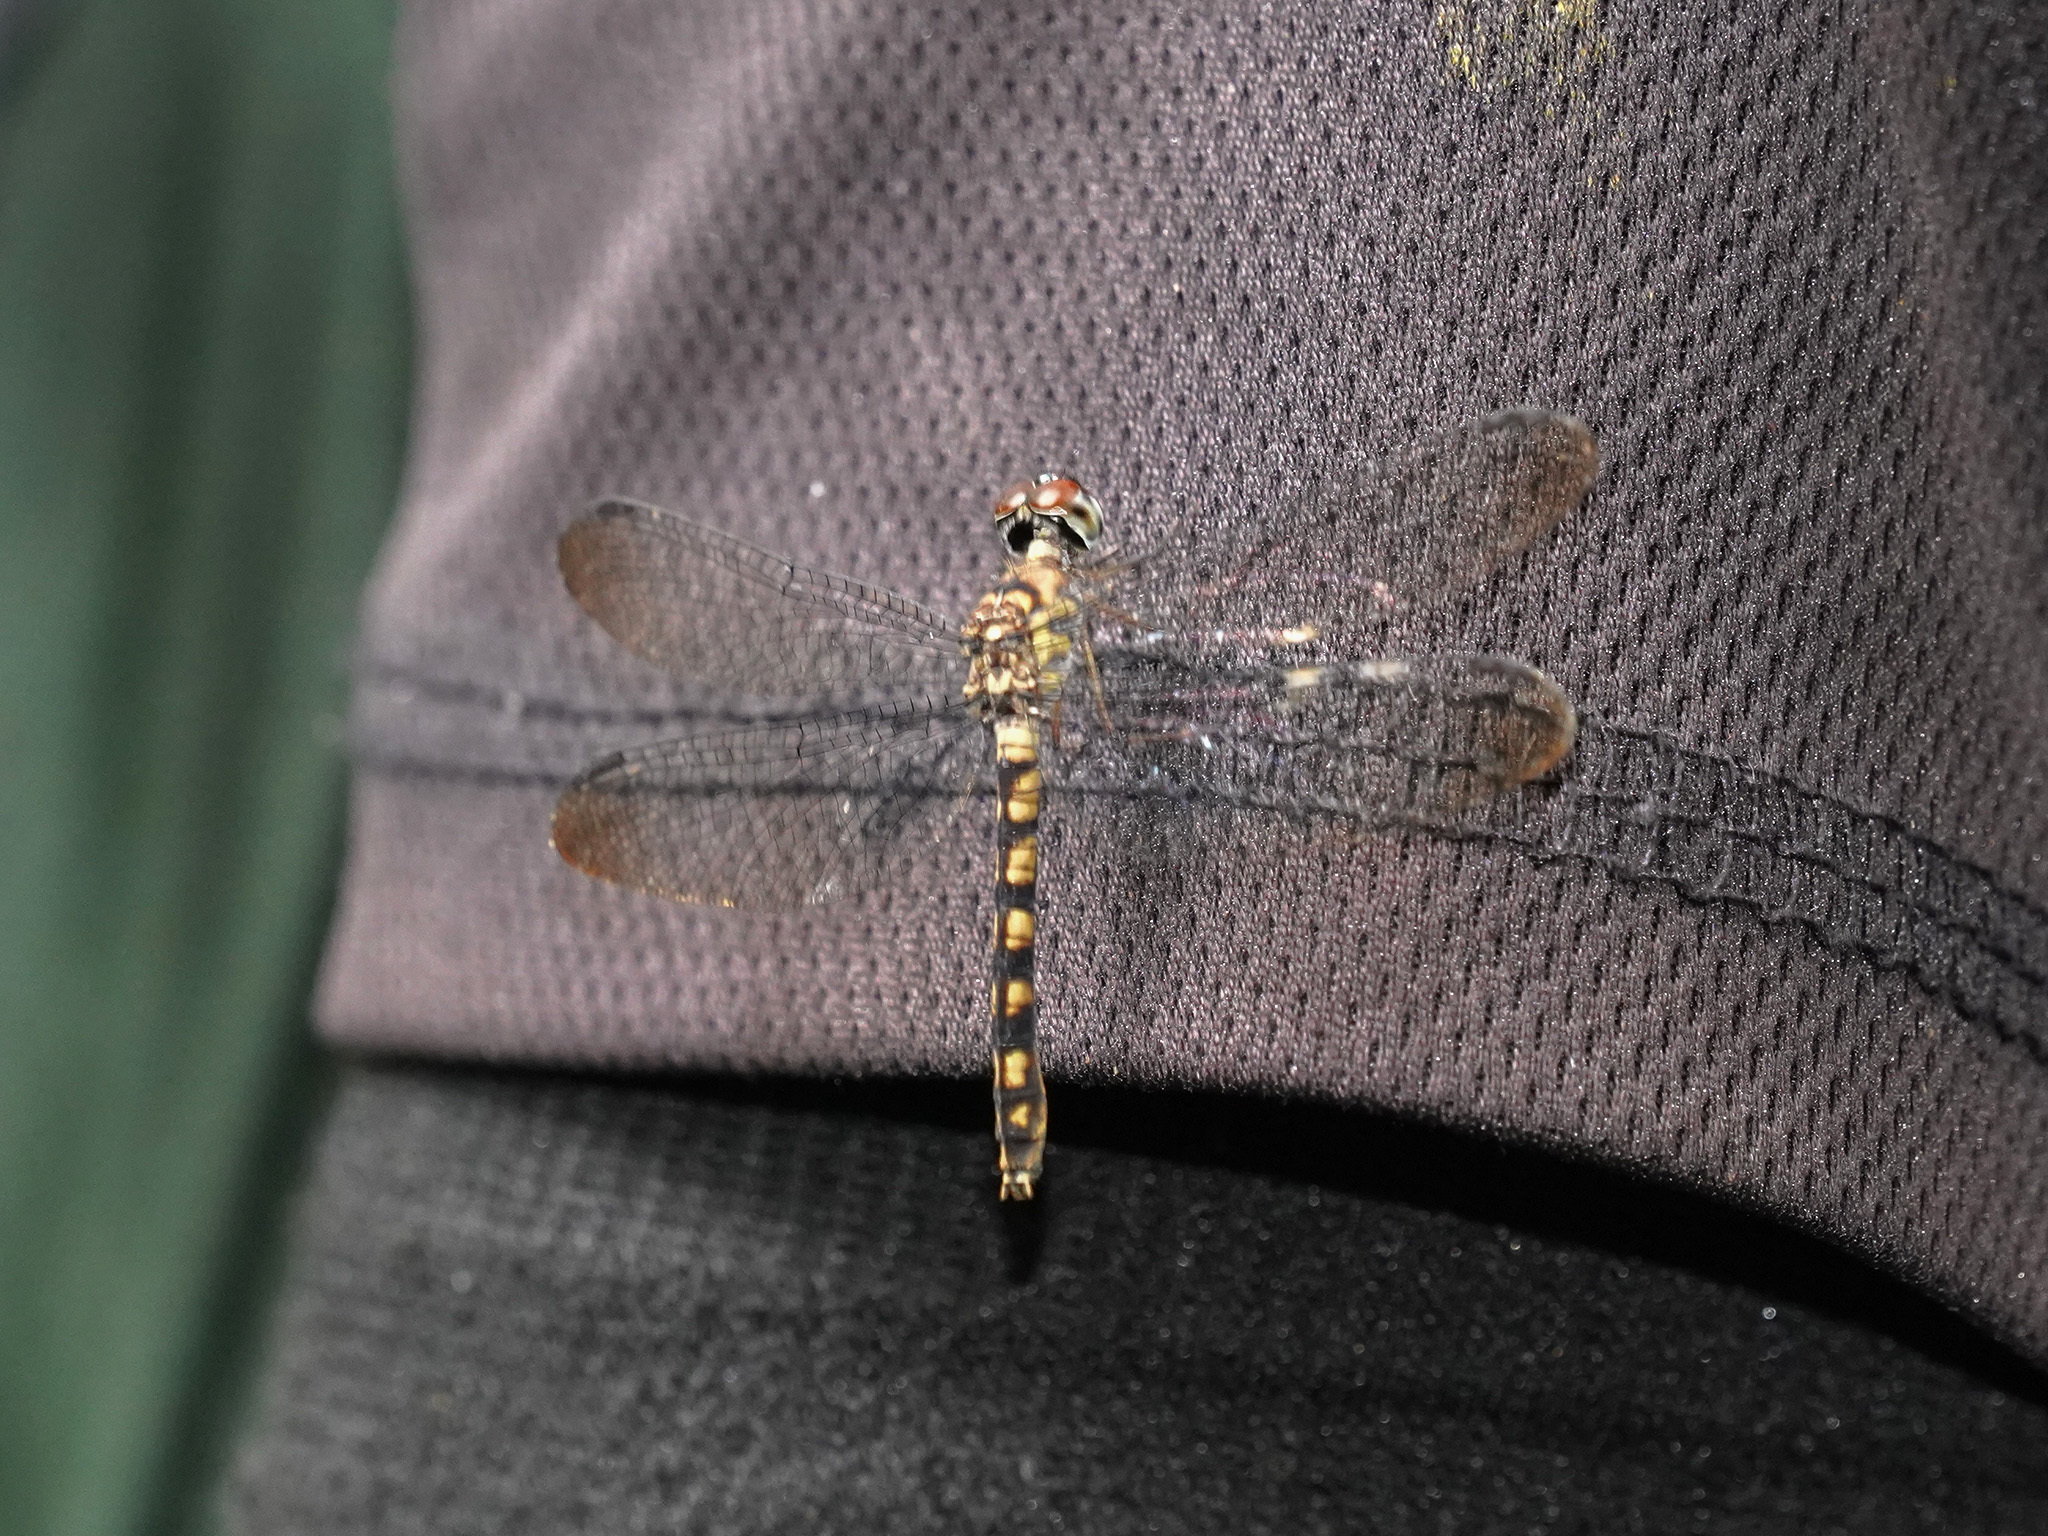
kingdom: Animalia
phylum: Arthropoda
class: Insecta
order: Odonata
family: Libellulidae
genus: Tyriobapta
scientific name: Tyriobapta torrida
